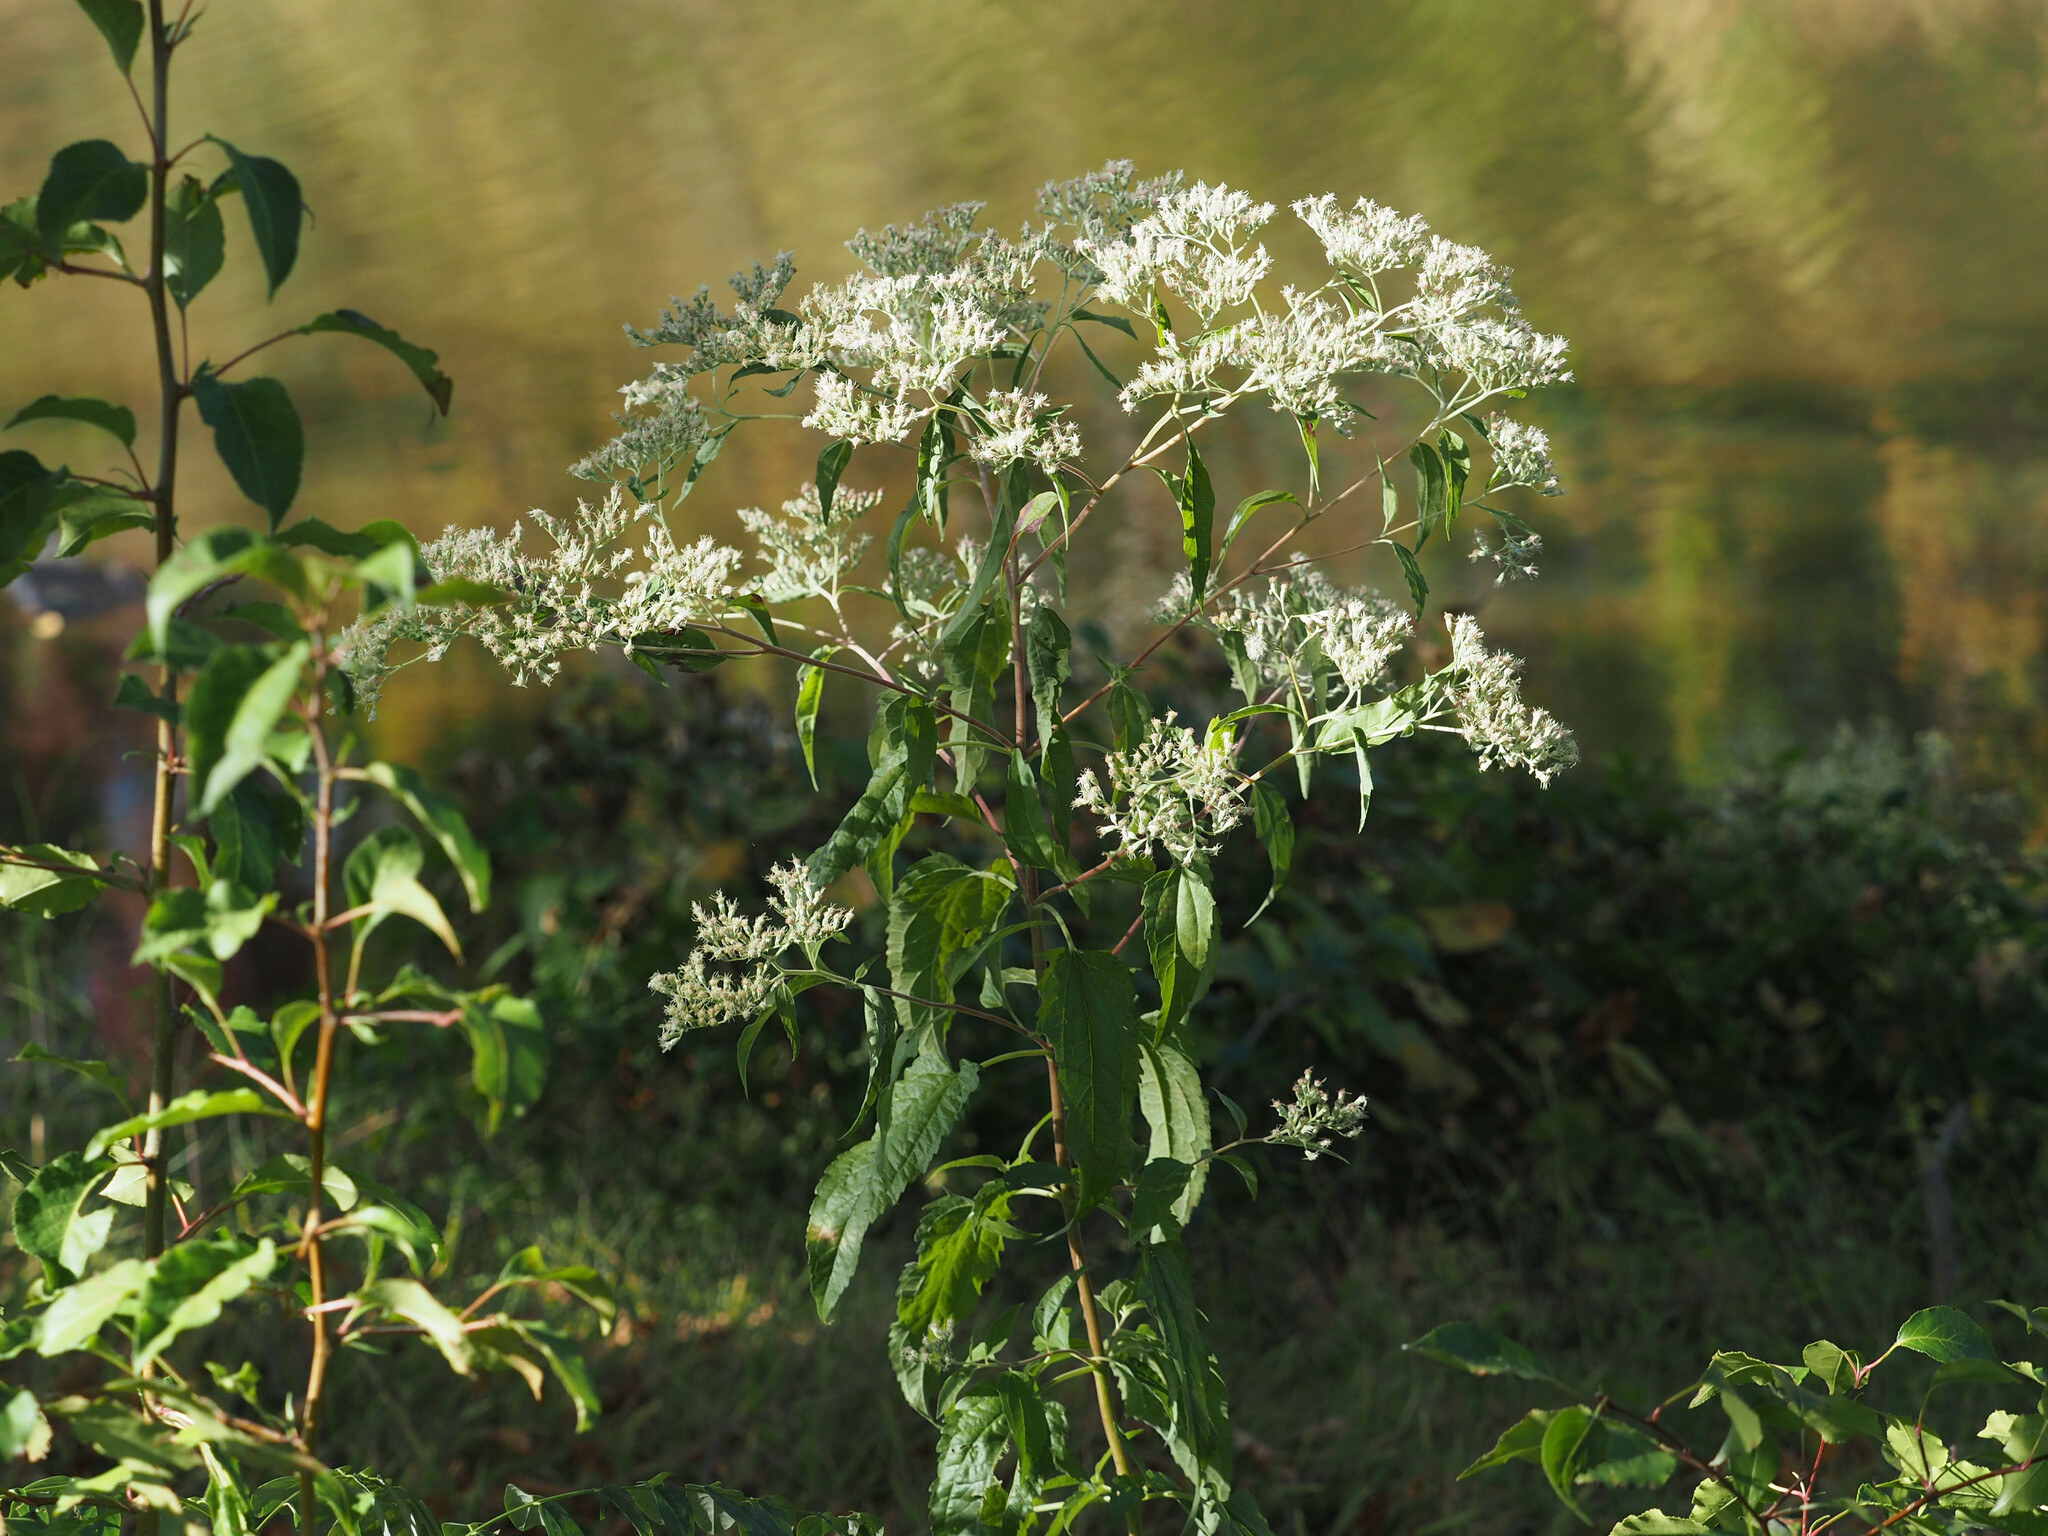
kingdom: Plantae
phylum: Tracheophyta
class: Magnoliopsida
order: Asterales
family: Asteraceae
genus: Eupatorium
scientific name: Eupatorium serotinum
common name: Late boneset
